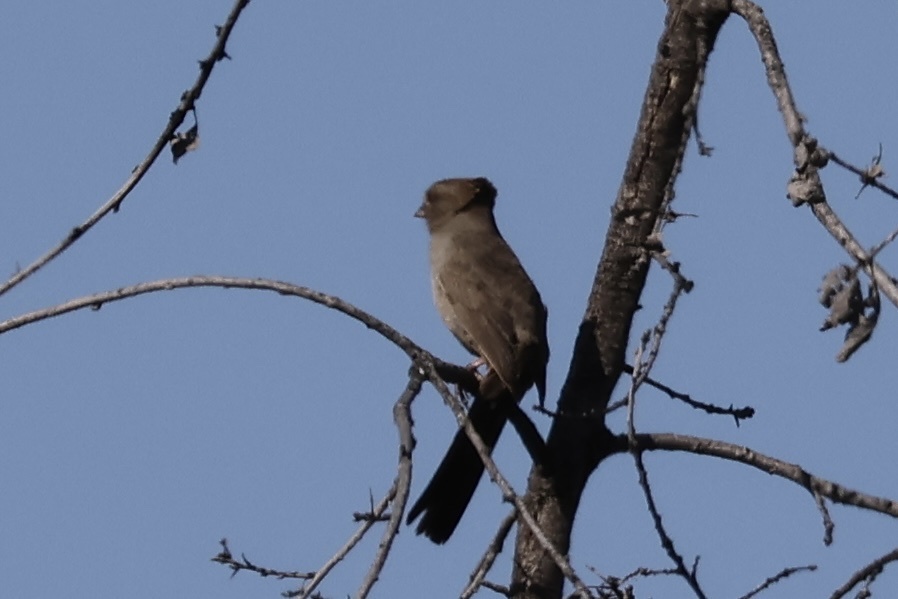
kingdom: Animalia
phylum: Chordata
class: Aves
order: Passeriformes
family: Passerellidae
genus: Melozone
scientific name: Melozone crissalis
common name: California towhee
